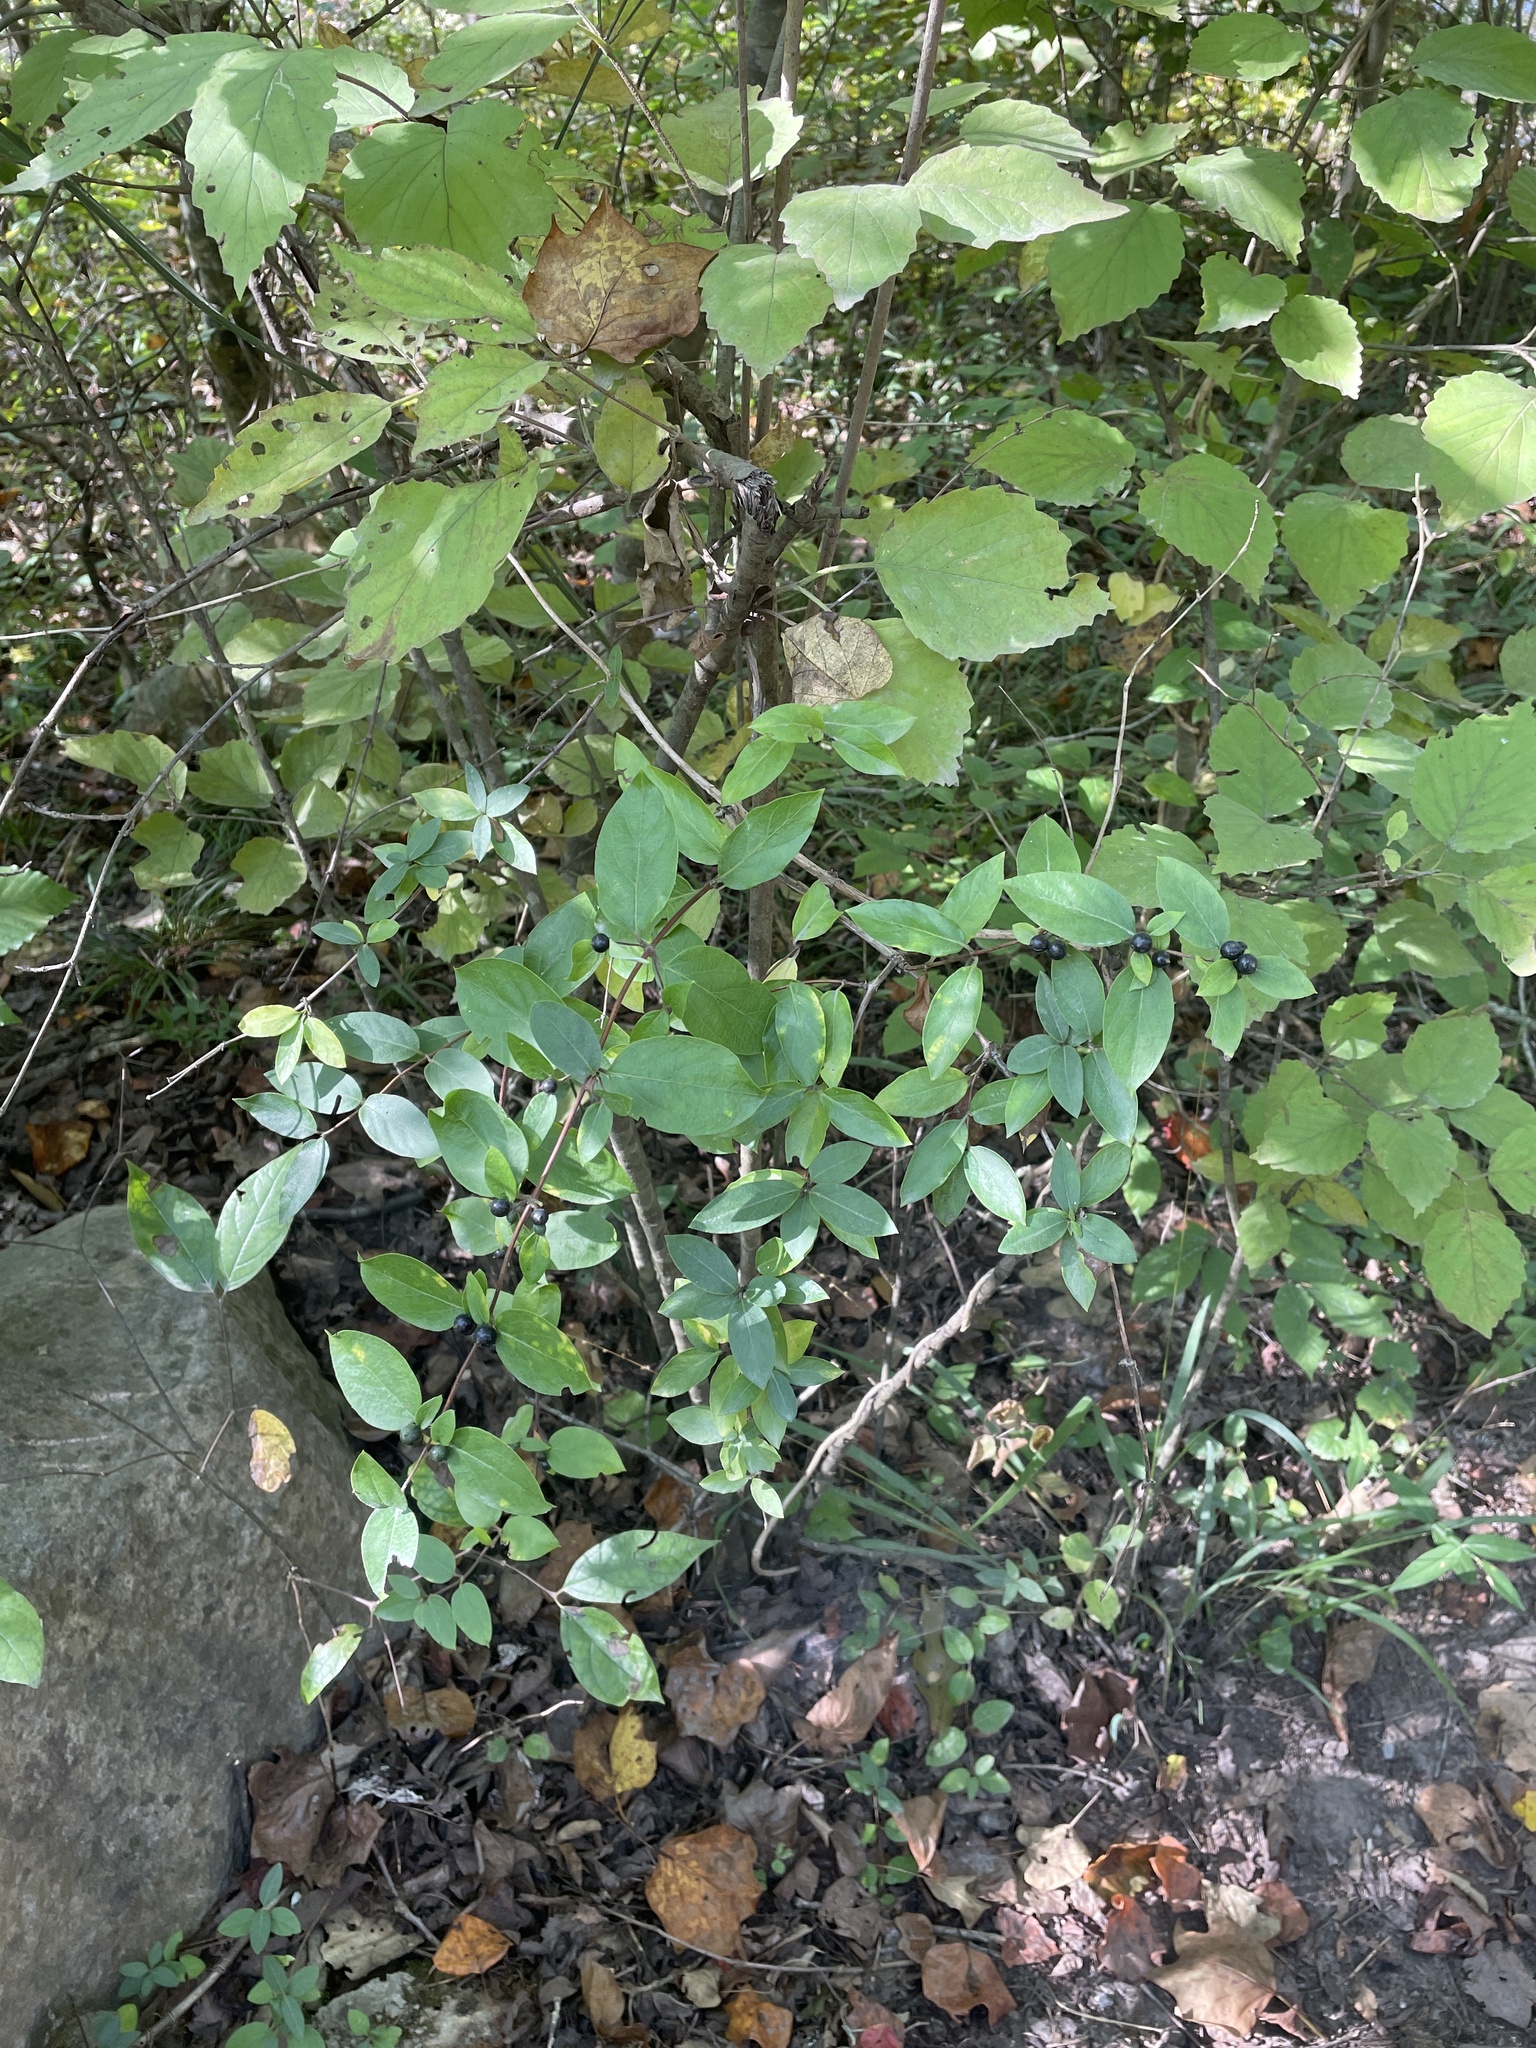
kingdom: Plantae
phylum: Tracheophyta
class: Magnoliopsida
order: Dipsacales
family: Caprifoliaceae
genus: Lonicera
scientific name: Lonicera japonica
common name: Japanese honeysuckle
